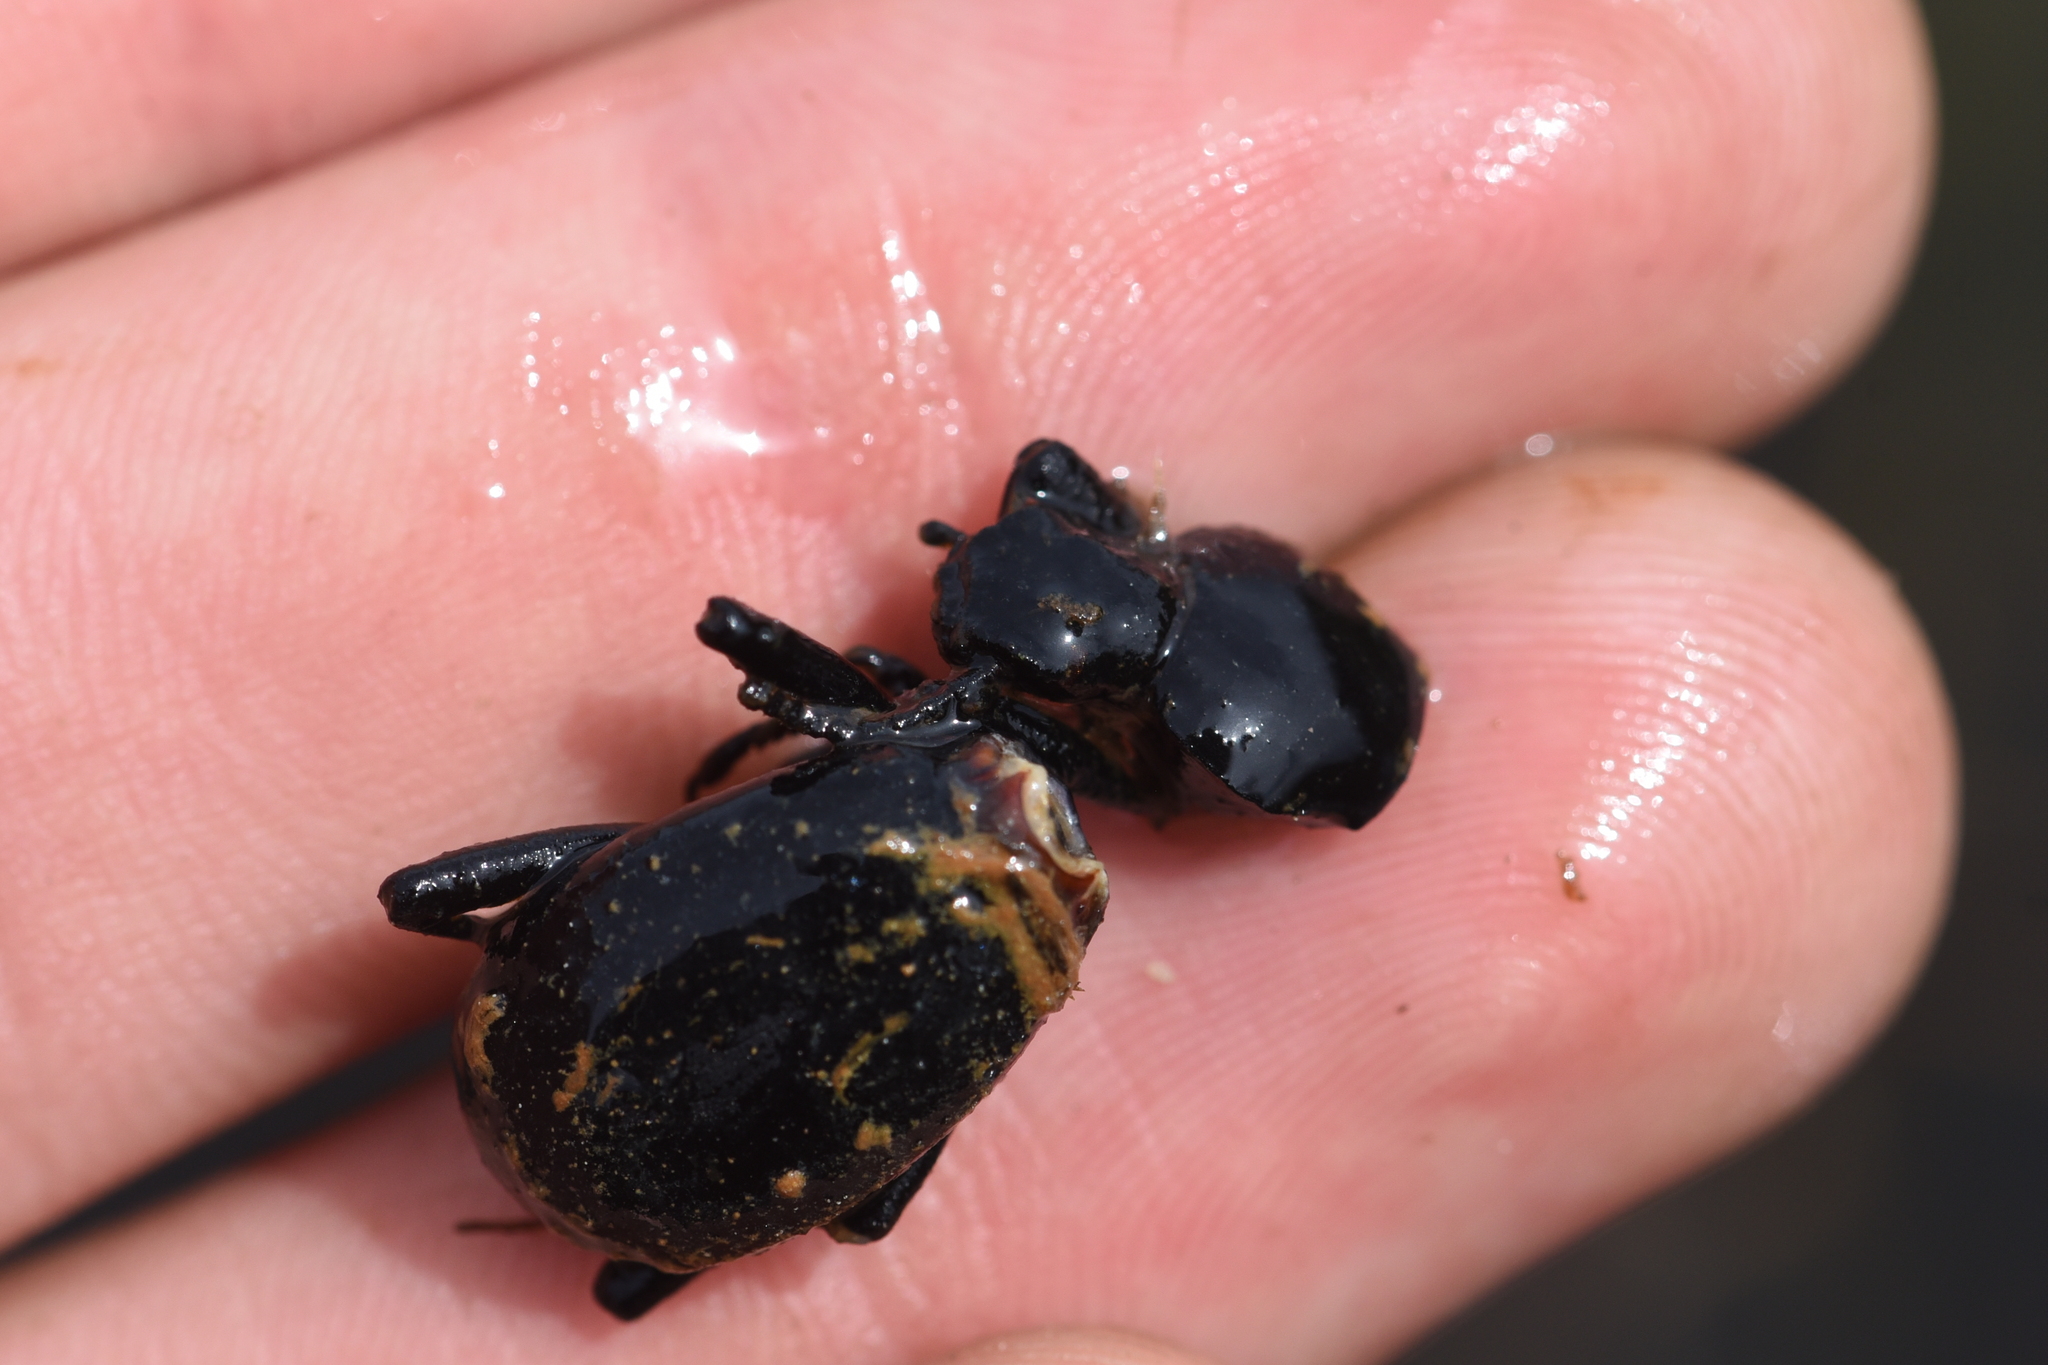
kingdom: Animalia
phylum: Arthropoda
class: Insecta
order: Coleoptera
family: Tenebrionidae
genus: Coelocnemis
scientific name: Coelocnemis dilaticollis
